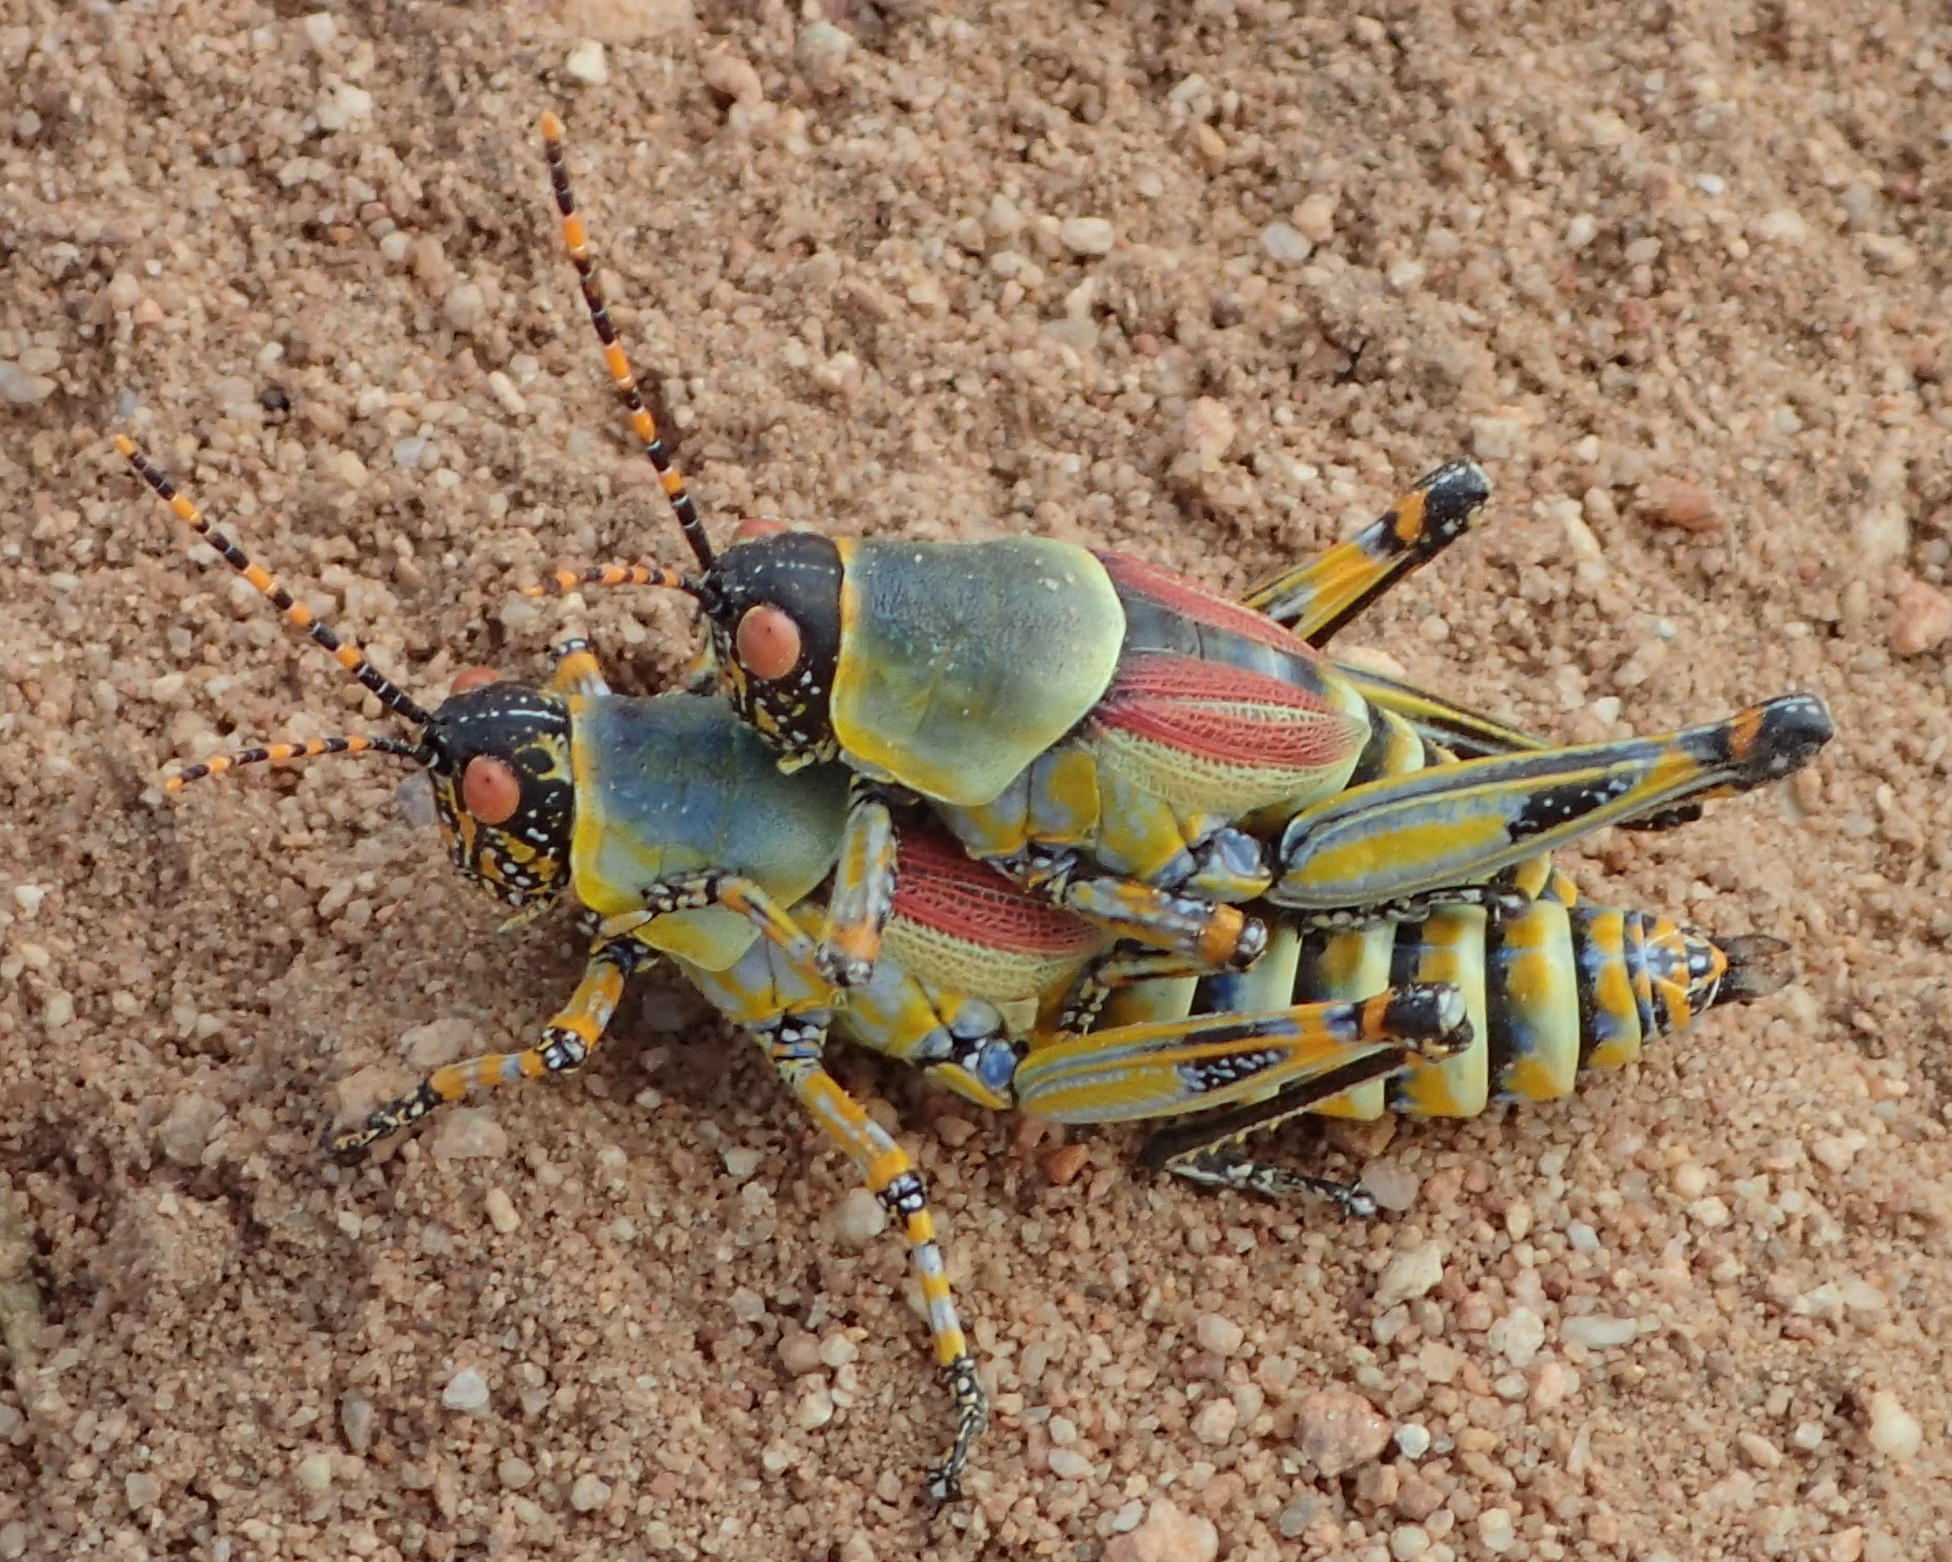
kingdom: Animalia
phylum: Arthropoda
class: Insecta
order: Orthoptera
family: Pyrgomorphidae
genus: Zonocerus
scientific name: Zonocerus elegans
